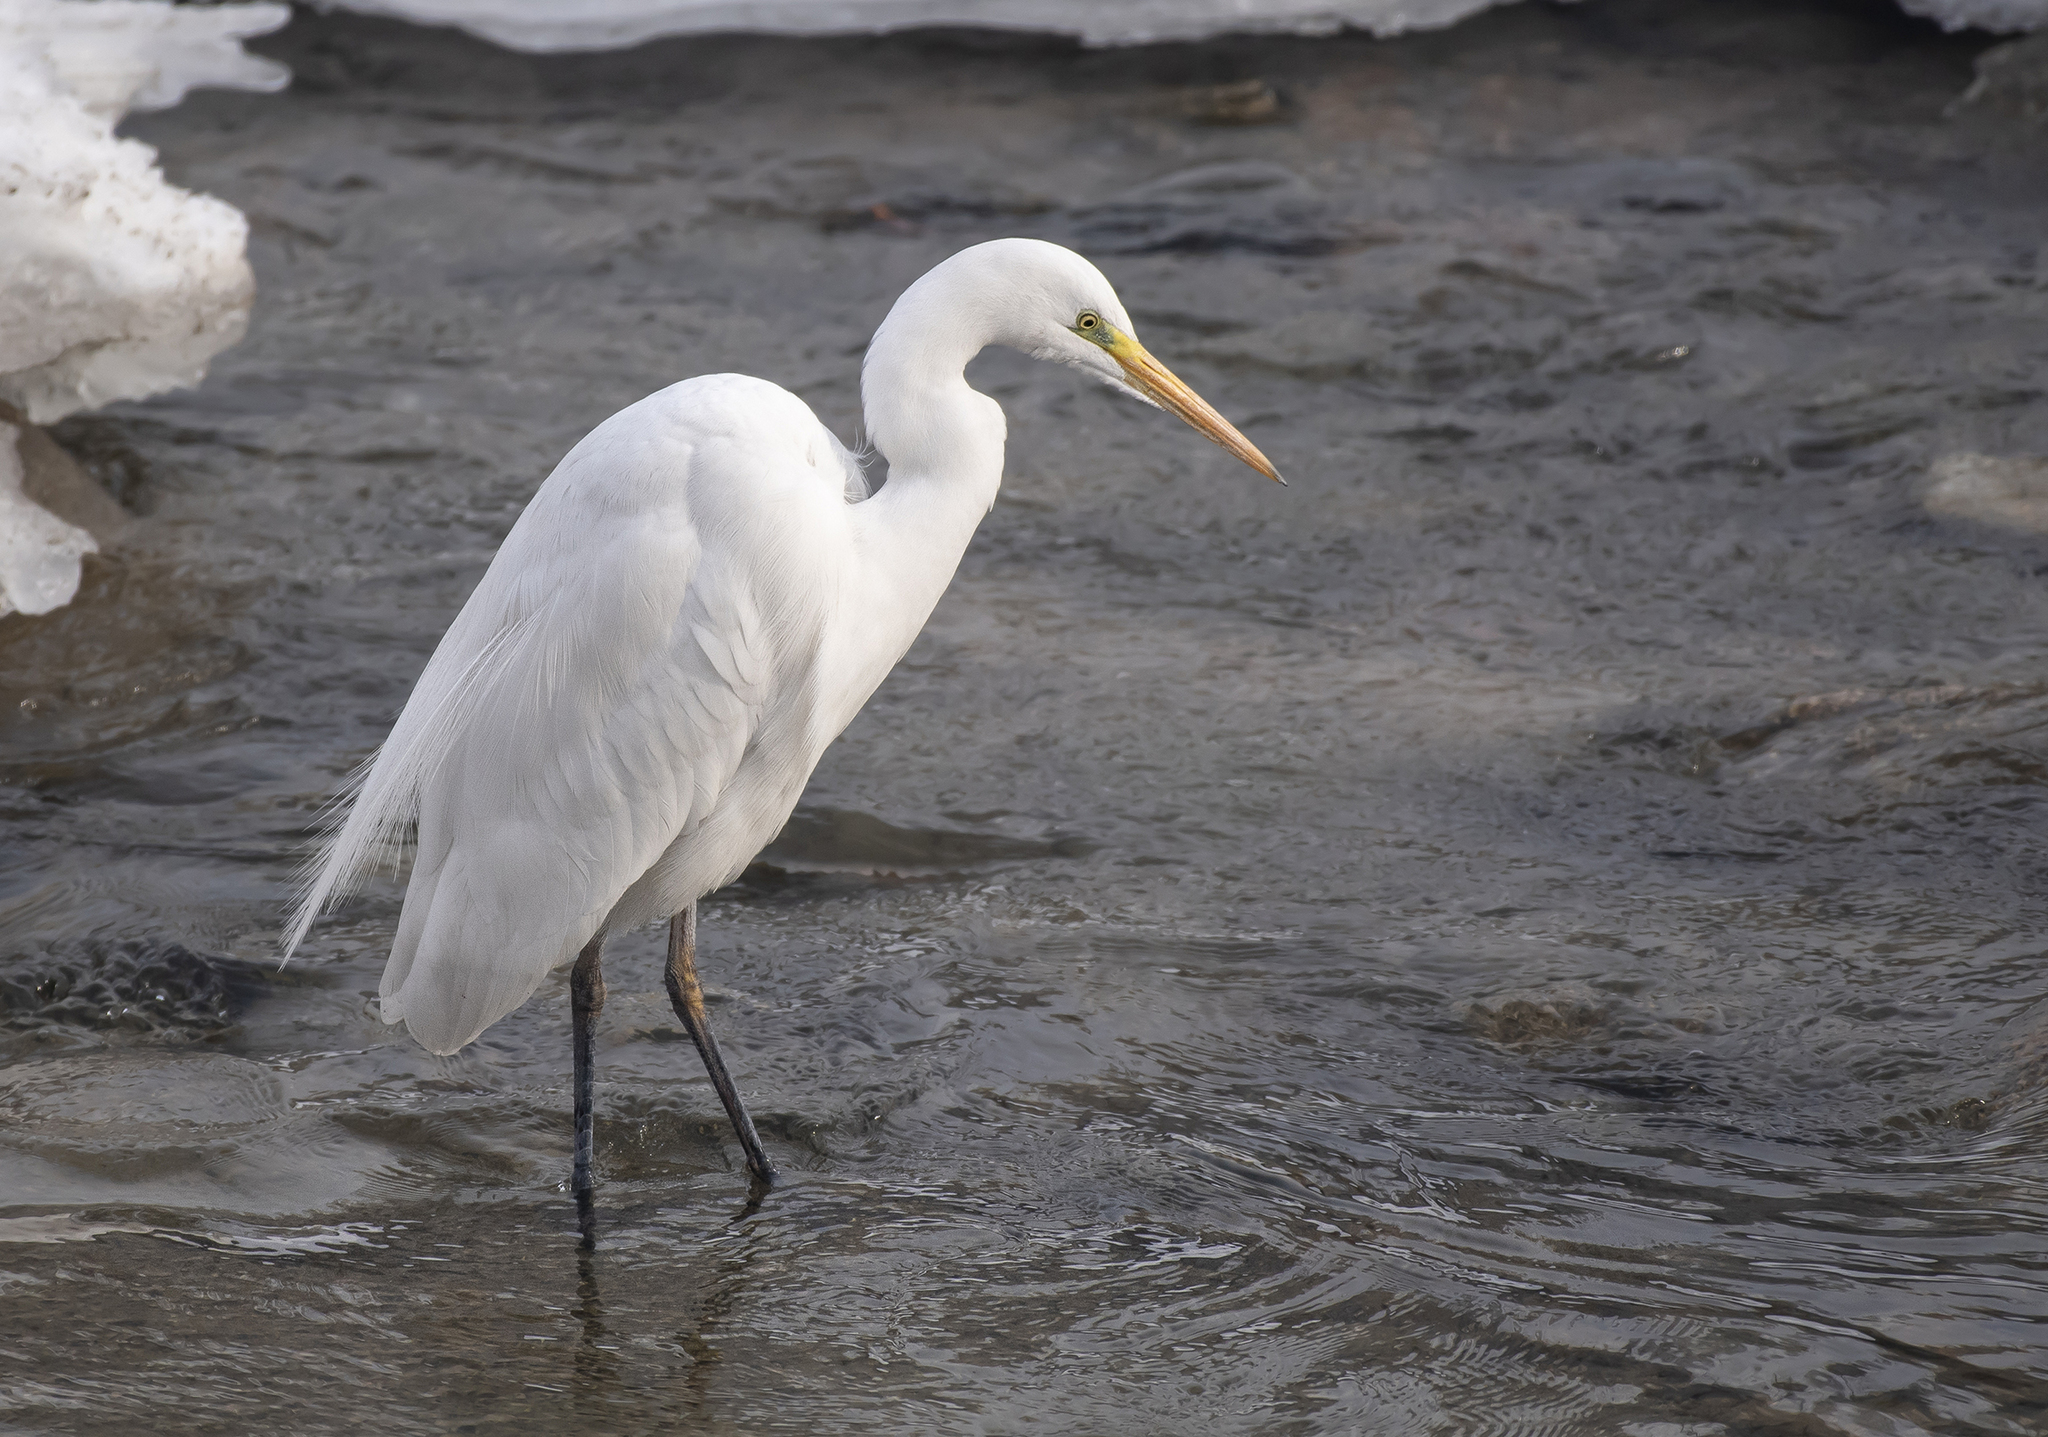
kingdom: Animalia
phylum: Chordata
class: Aves
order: Pelecaniformes
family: Ardeidae
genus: Ardea
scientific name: Ardea alba
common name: Great egret
